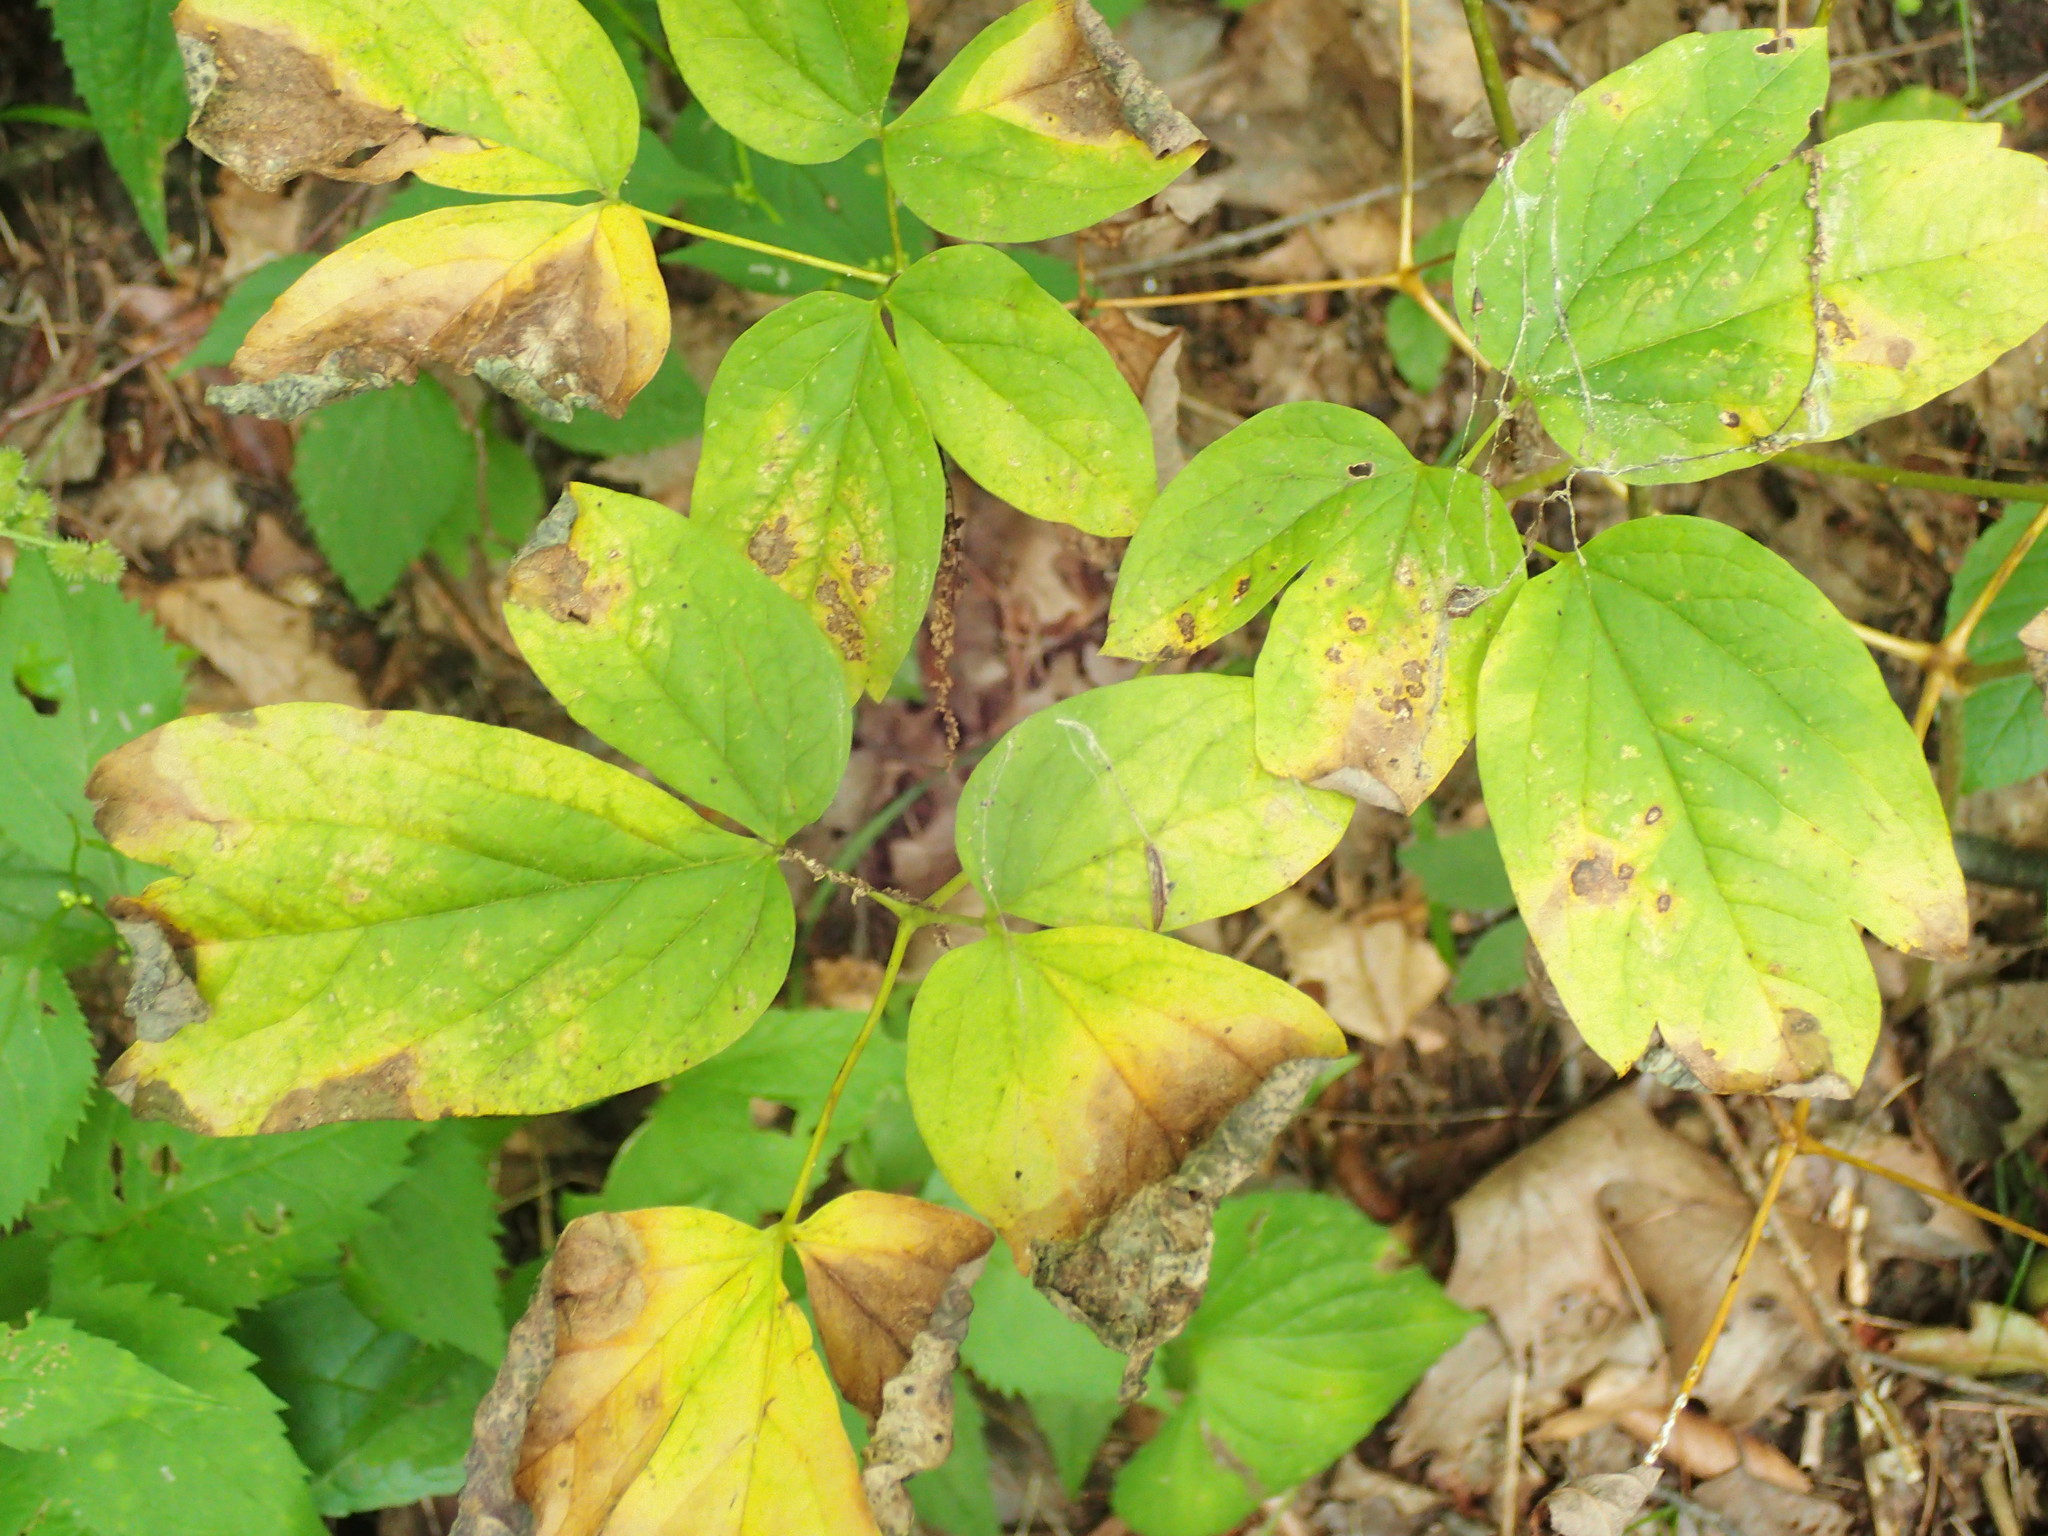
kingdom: Plantae
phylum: Tracheophyta
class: Magnoliopsida
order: Ranunculales
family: Berberidaceae
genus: Caulophyllum
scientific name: Caulophyllum thalictroides
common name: Blue cohosh
